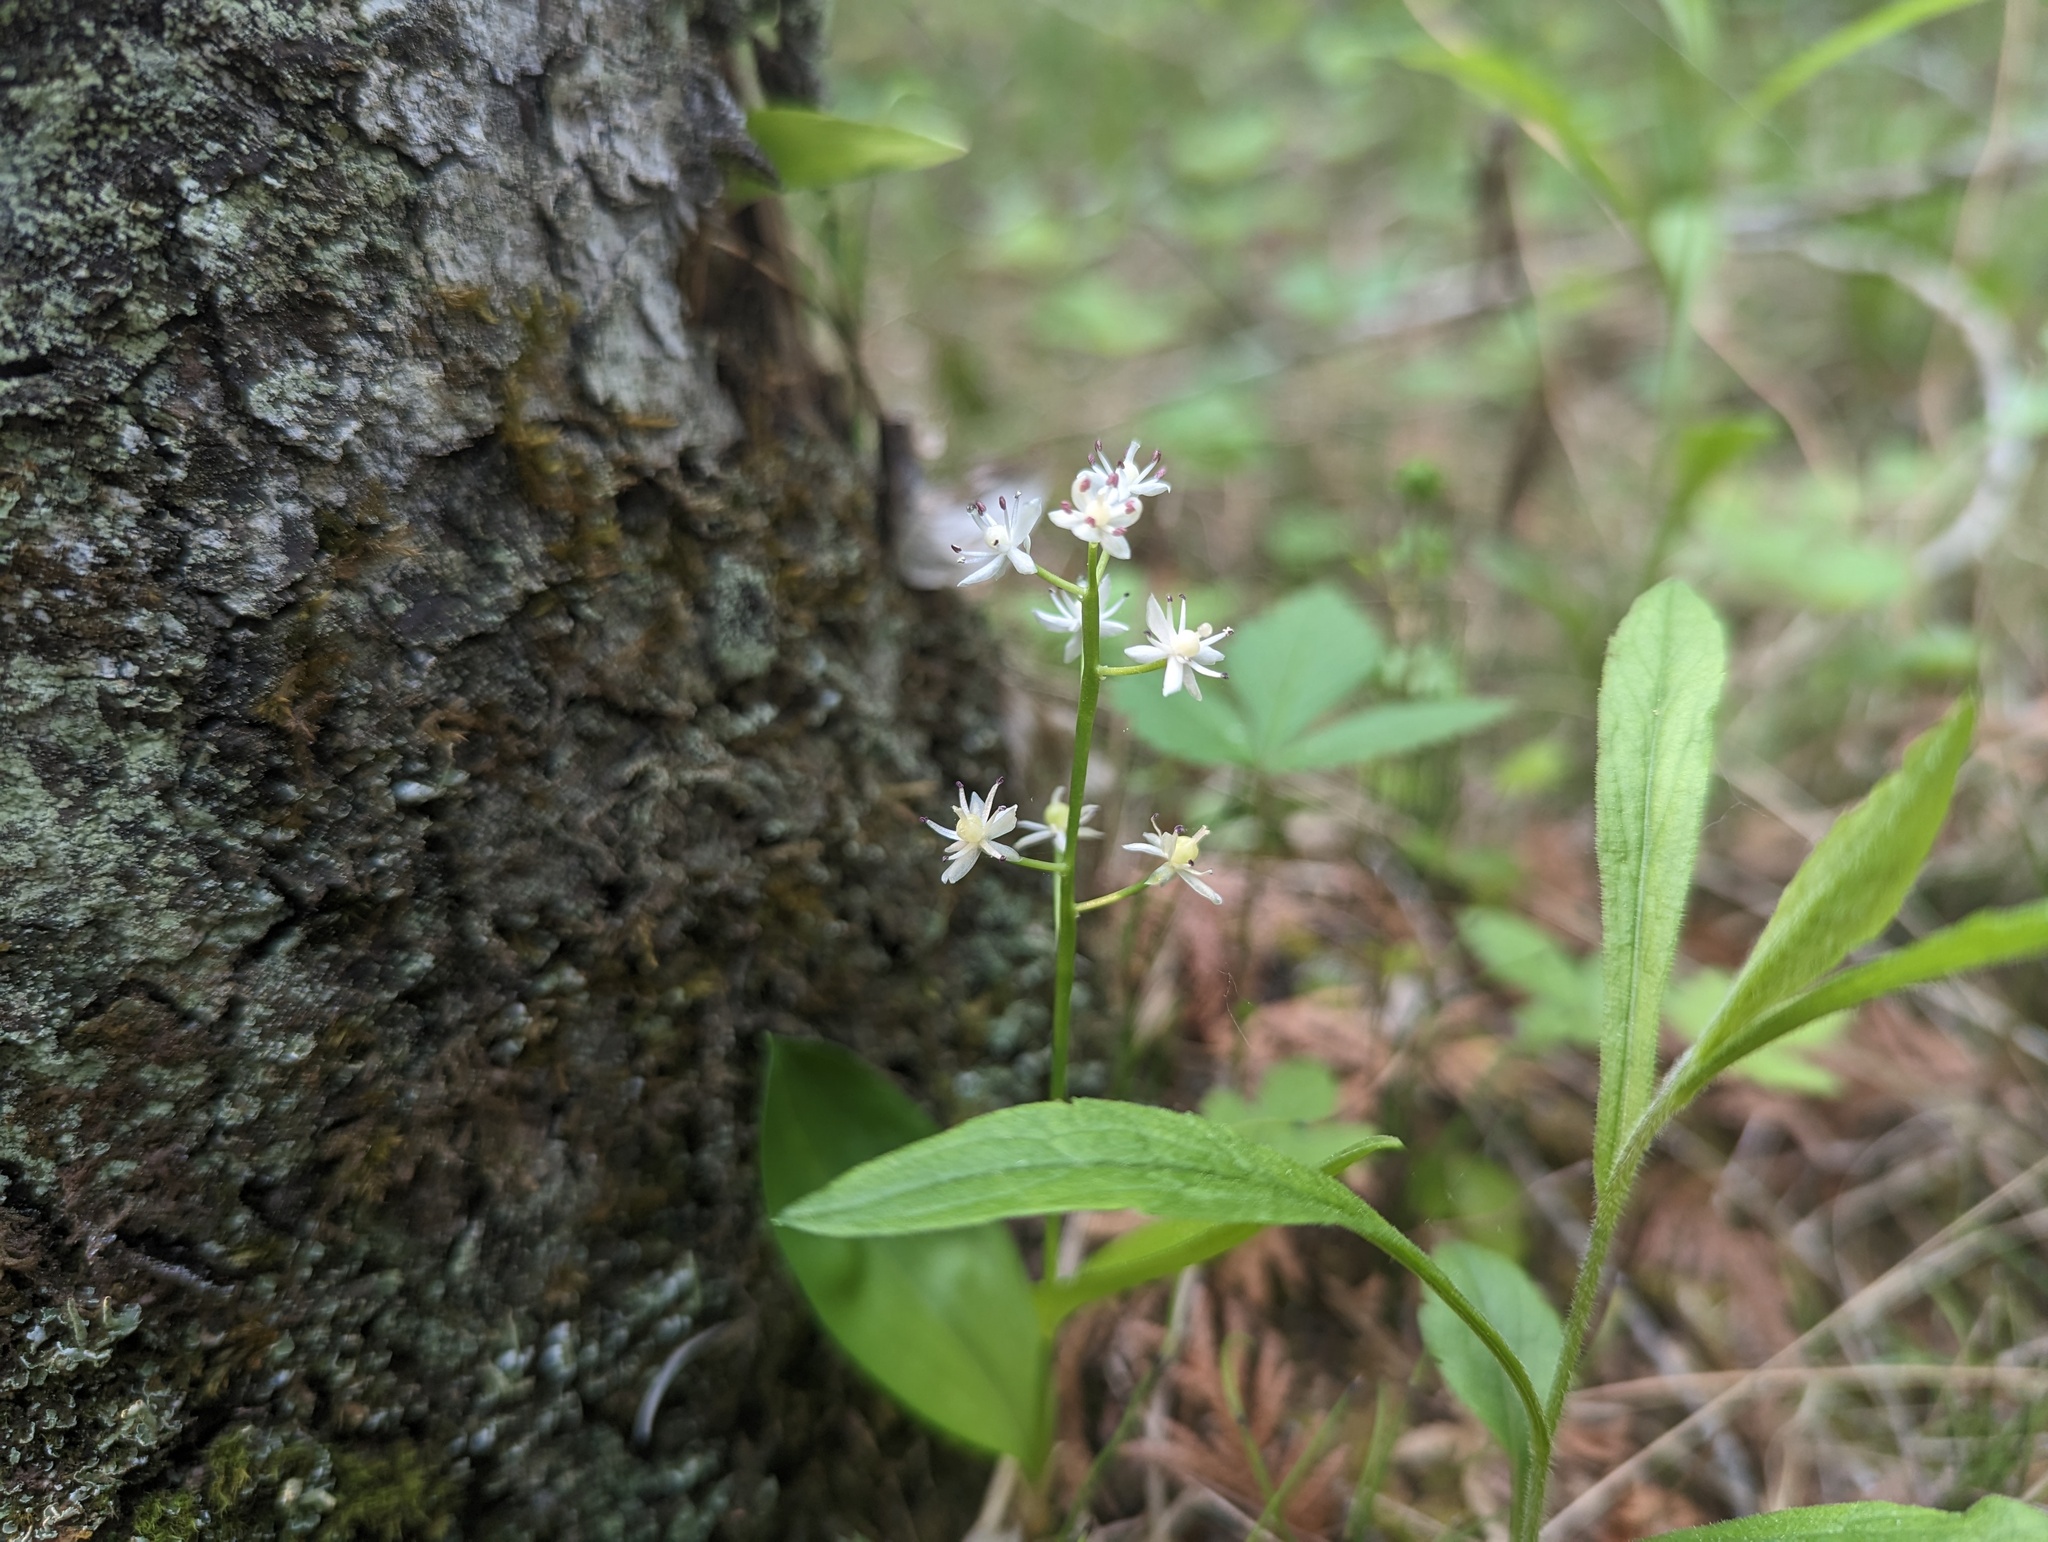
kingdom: Plantae
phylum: Tracheophyta
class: Liliopsida
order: Asparagales
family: Asparagaceae
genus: Maianthemum
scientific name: Maianthemum trifolium
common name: Swamp false solomon's seal
